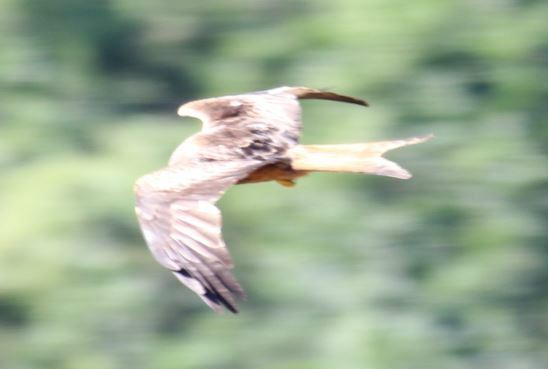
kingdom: Animalia
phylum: Chordata
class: Aves
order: Accipitriformes
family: Accipitridae
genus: Milvus
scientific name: Milvus milvus
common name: Red kite
